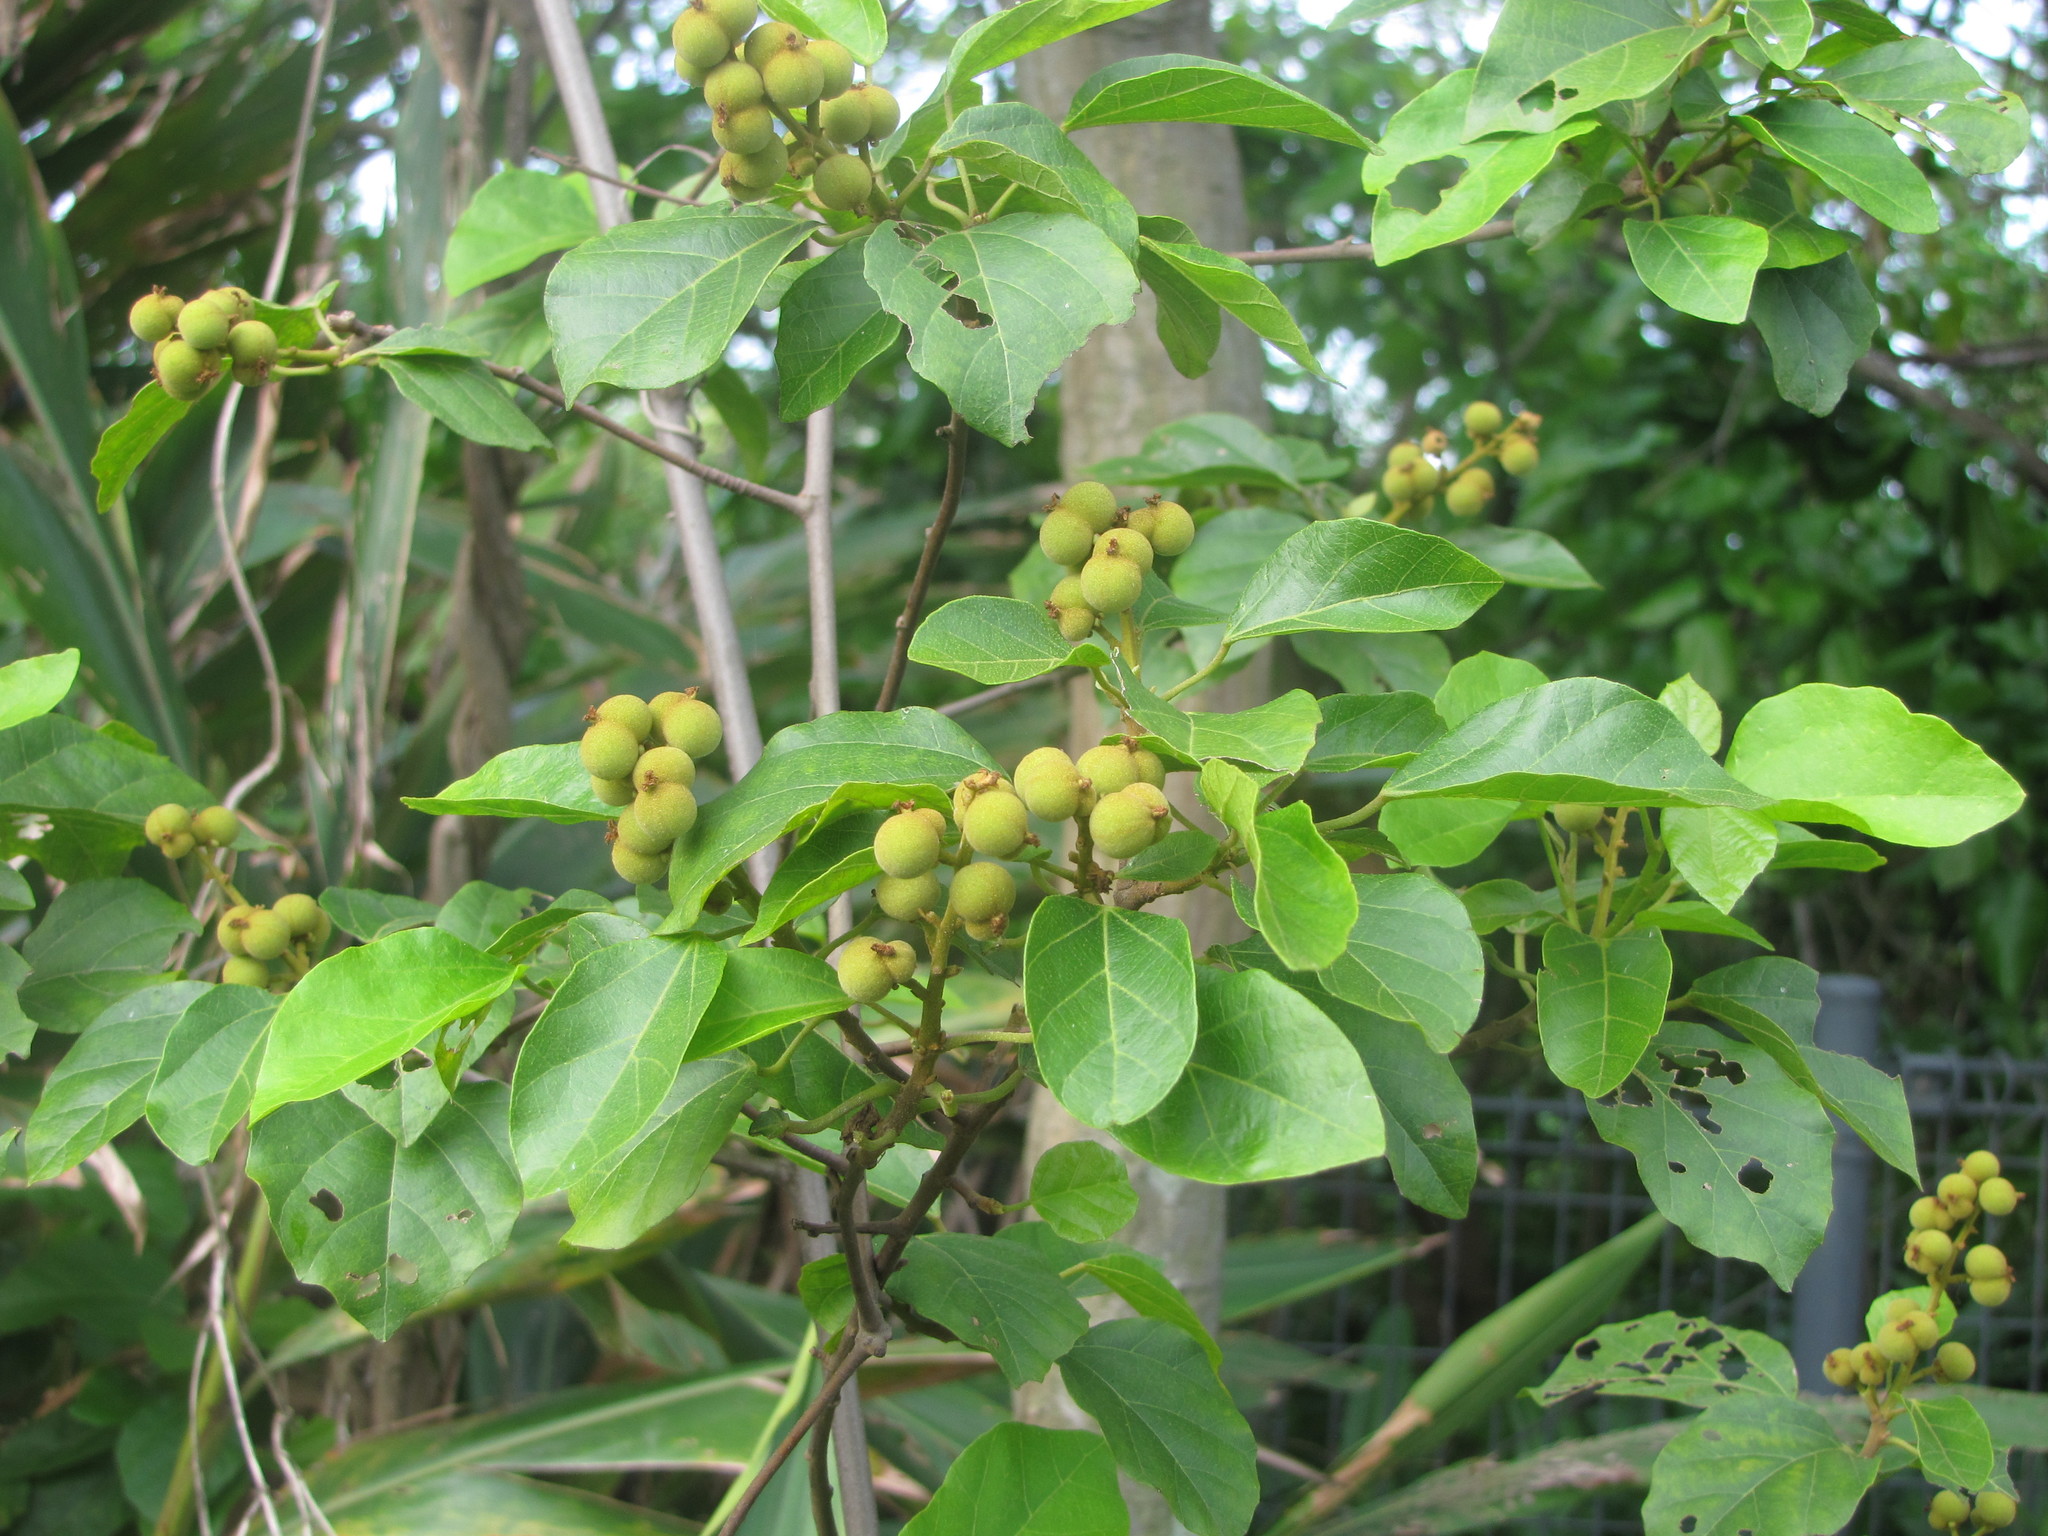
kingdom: Plantae
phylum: Tracheophyta
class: Magnoliopsida
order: Malpighiales
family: Euphorbiaceae
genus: Mallotus
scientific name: Mallotus repandus
